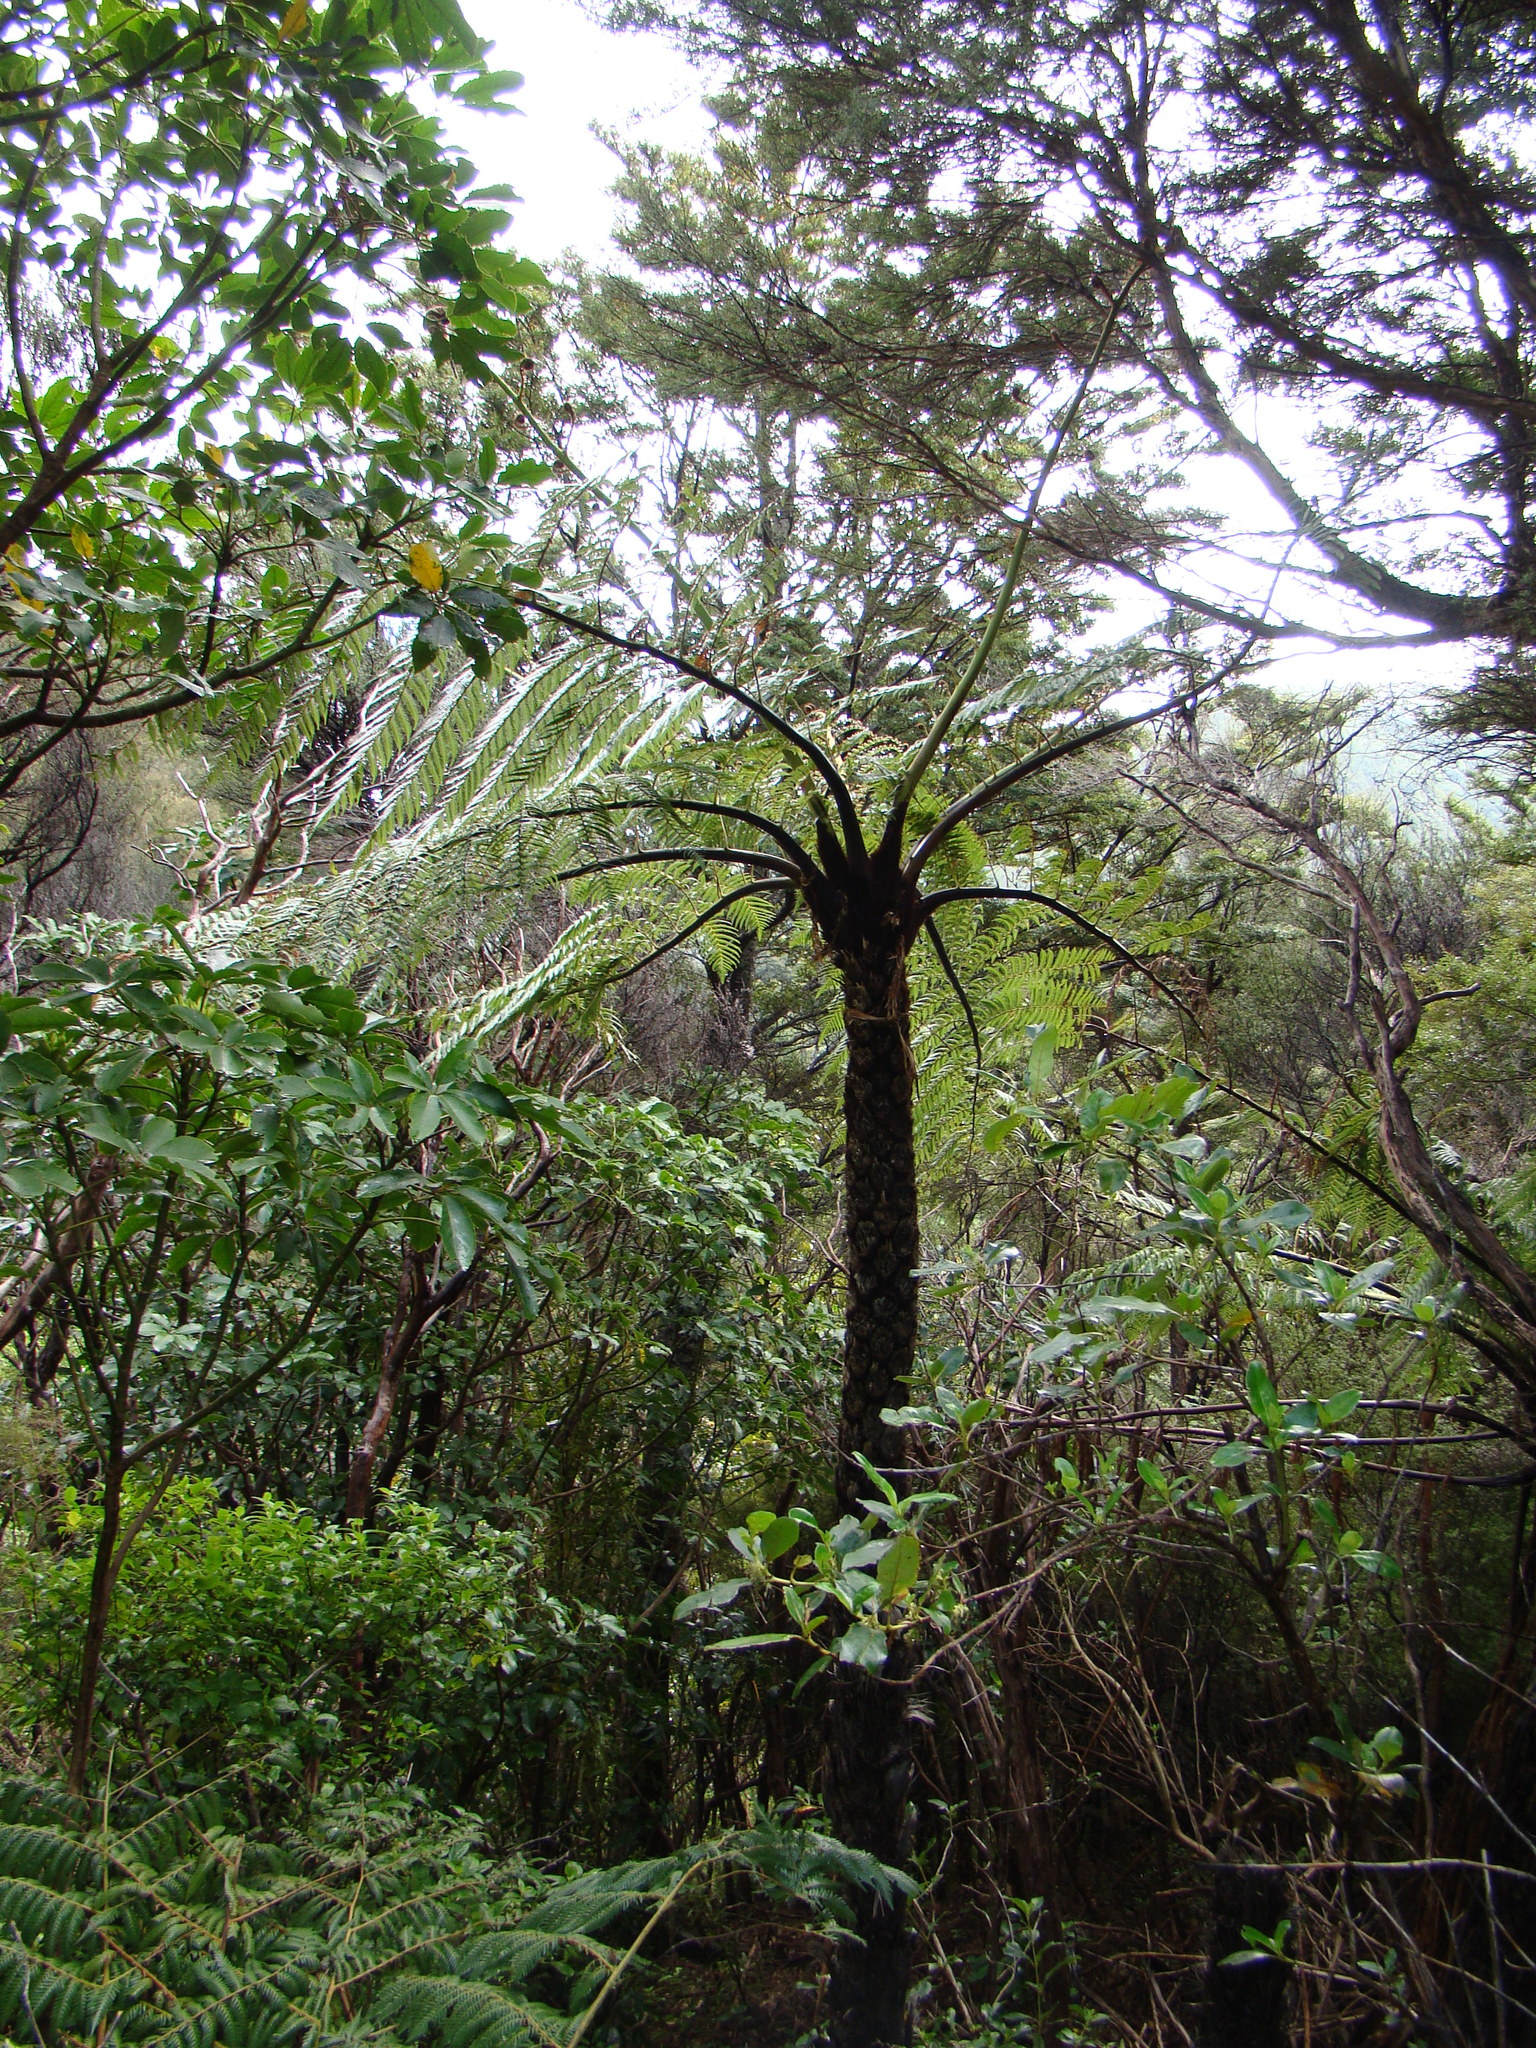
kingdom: Plantae
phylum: Tracheophyta
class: Polypodiopsida
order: Cyatheales
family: Cyatheaceae
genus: Sphaeropteris
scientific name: Sphaeropteris medullaris
